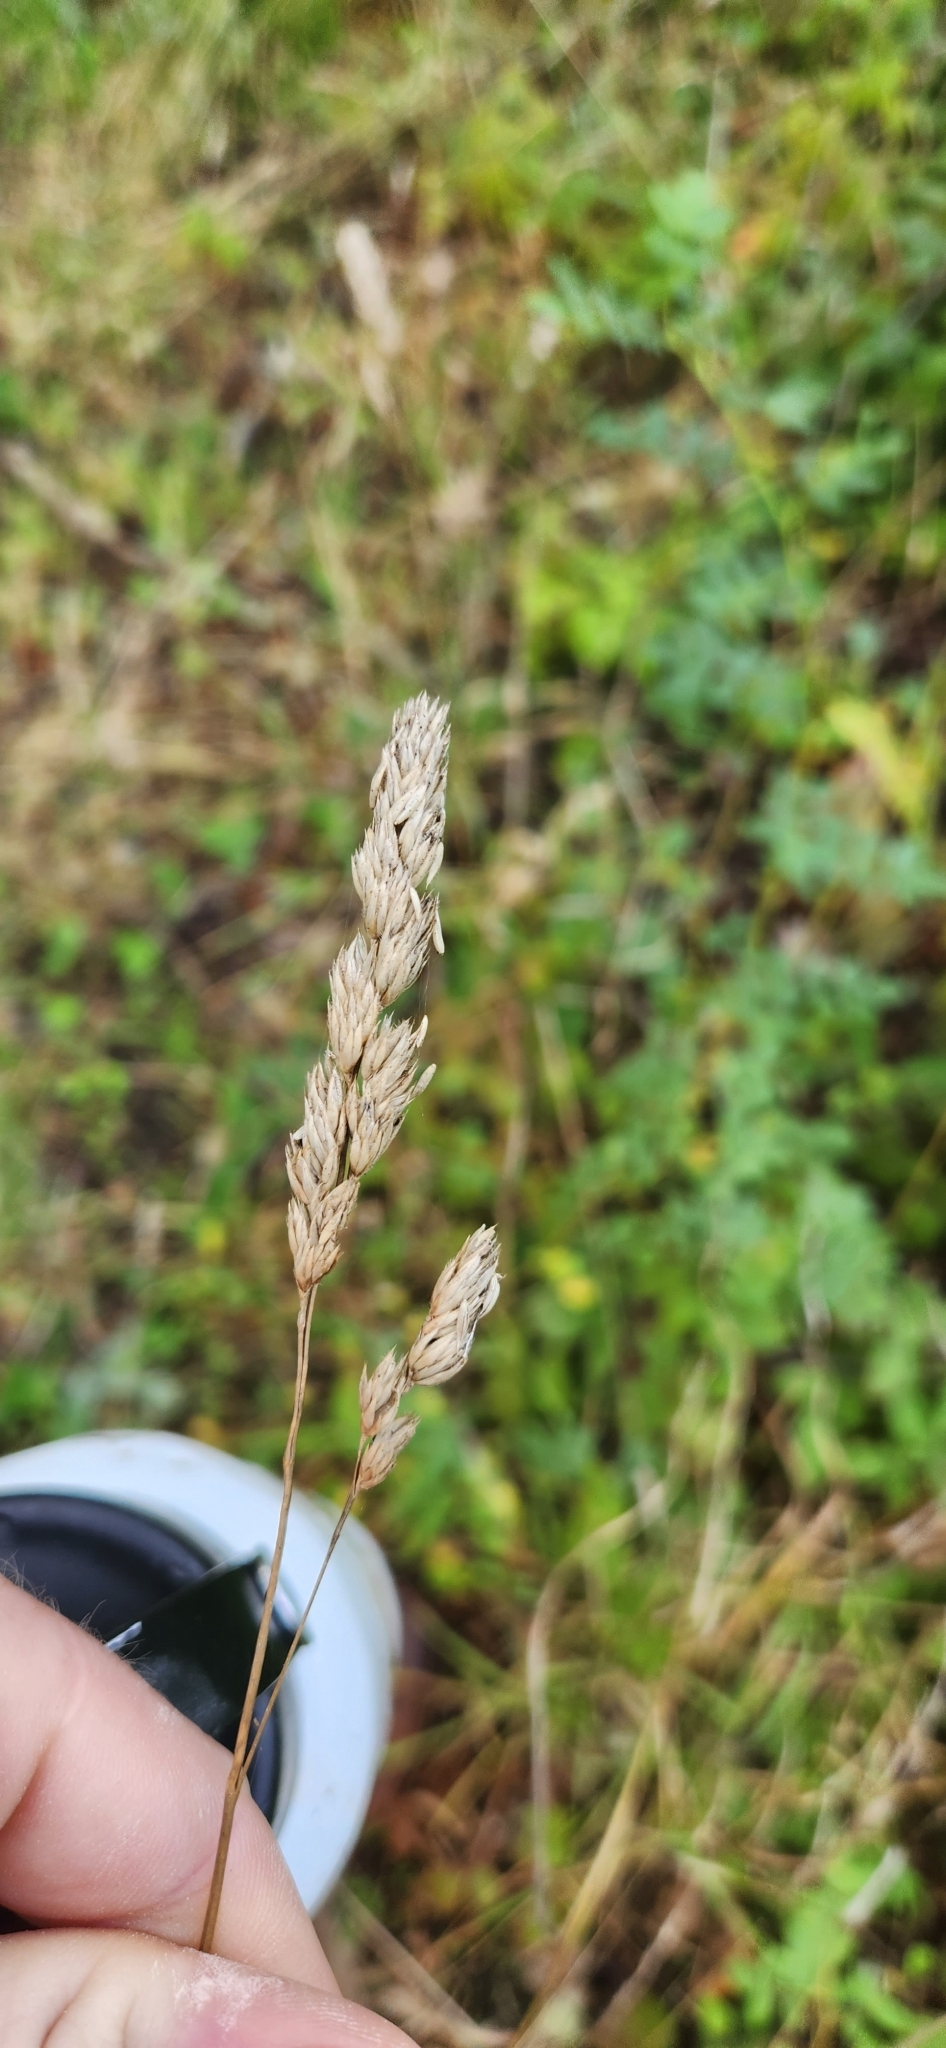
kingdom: Plantae
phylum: Tracheophyta
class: Liliopsida
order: Poales
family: Poaceae
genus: Dactylis
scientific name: Dactylis glomerata
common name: Orchardgrass
